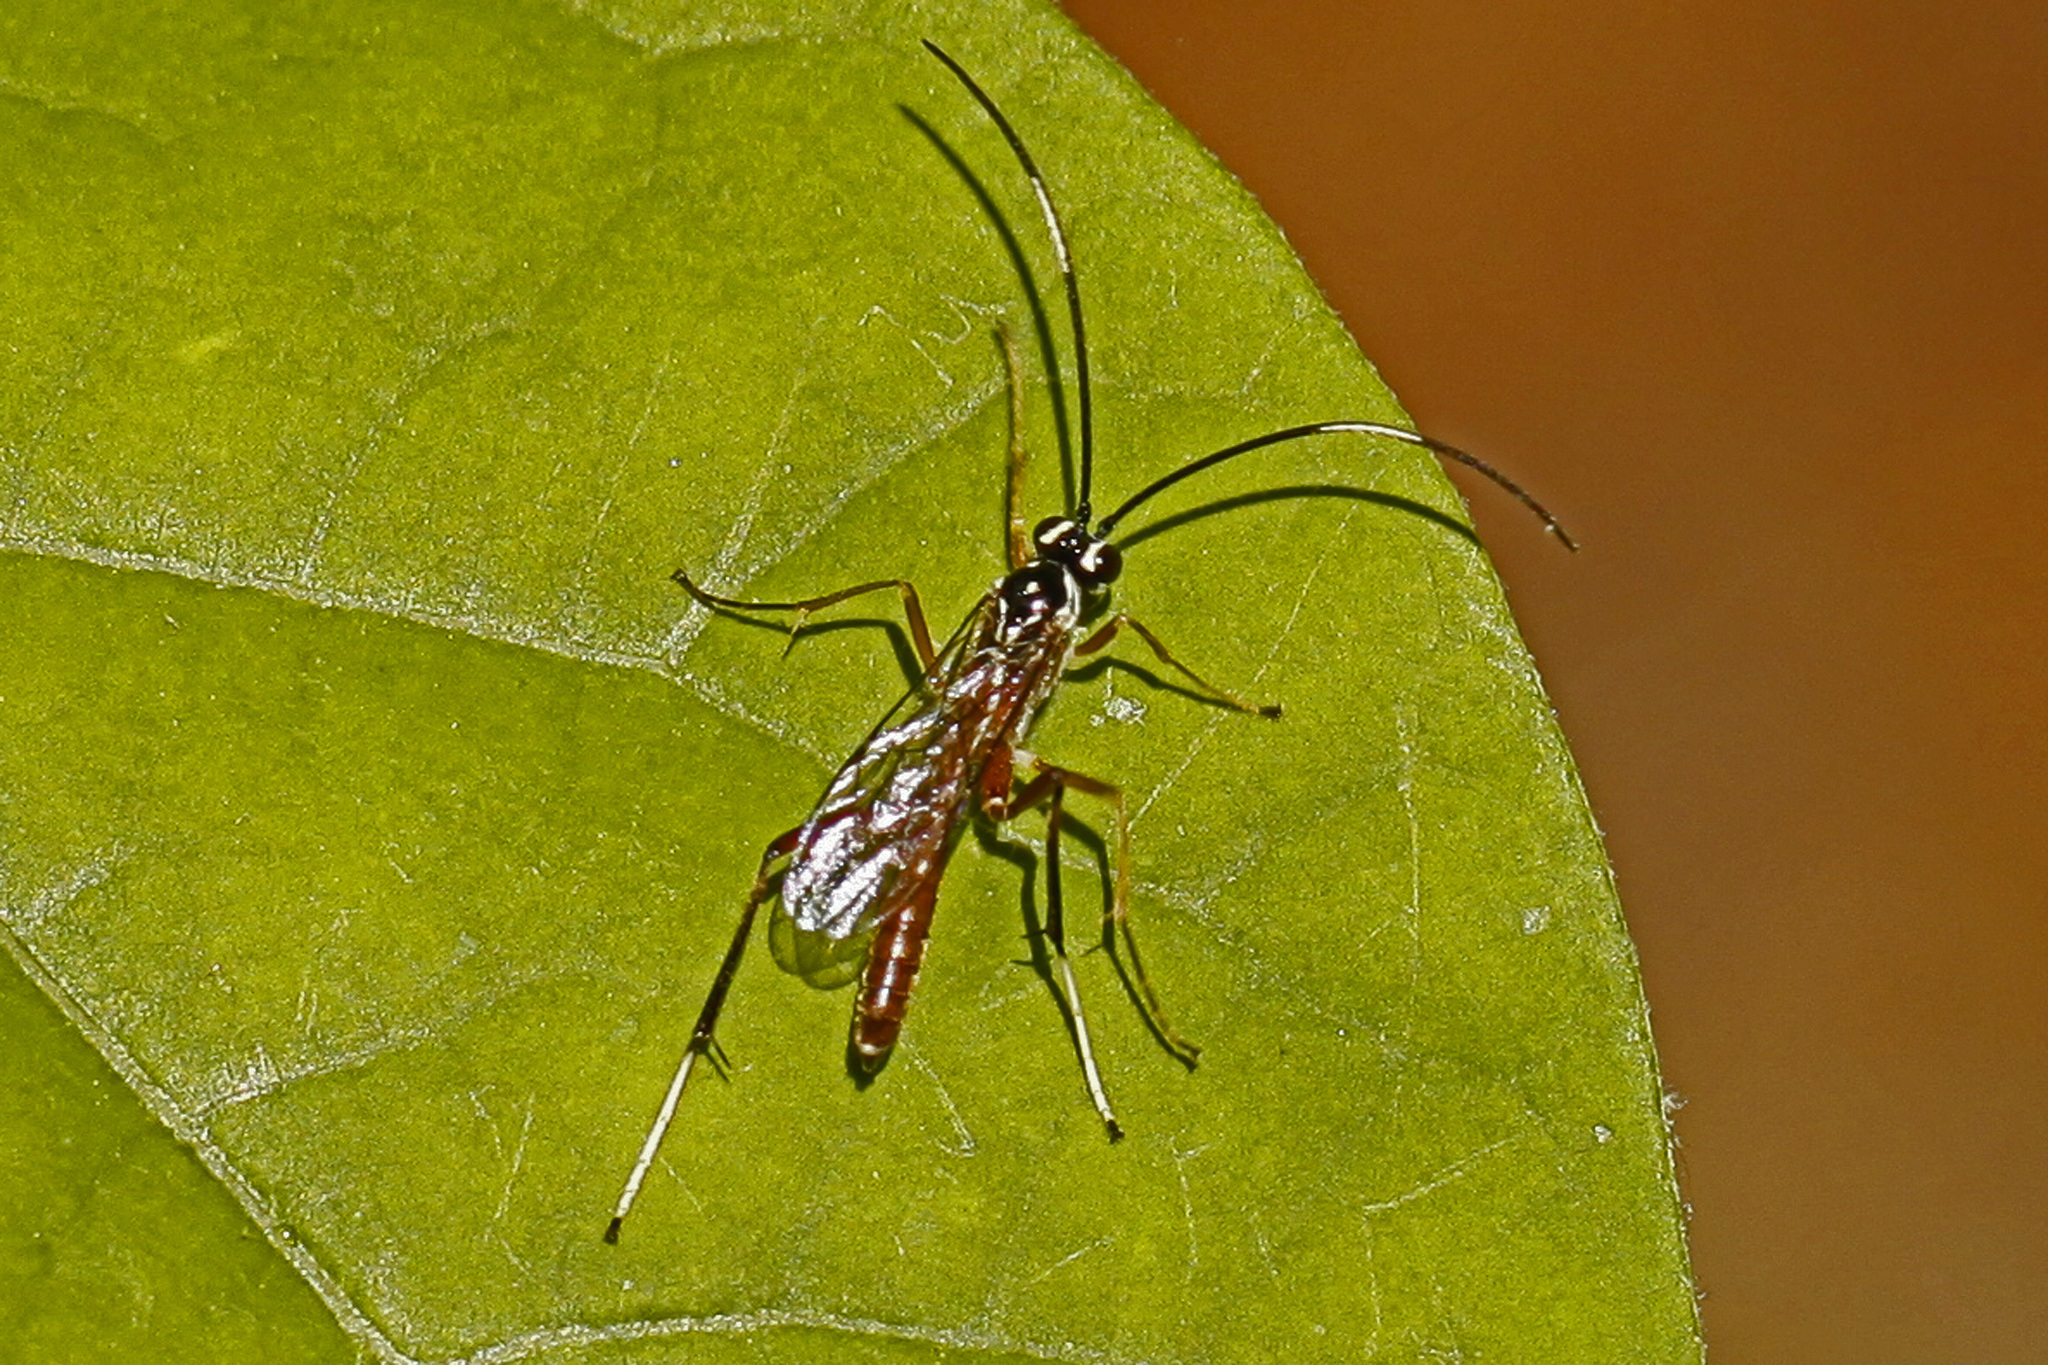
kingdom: Animalia
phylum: Arthropoda
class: Insecta
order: Hymenoptera
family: Ichneumonidae
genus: Mesostenus
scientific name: Mesostenus thoracicus
